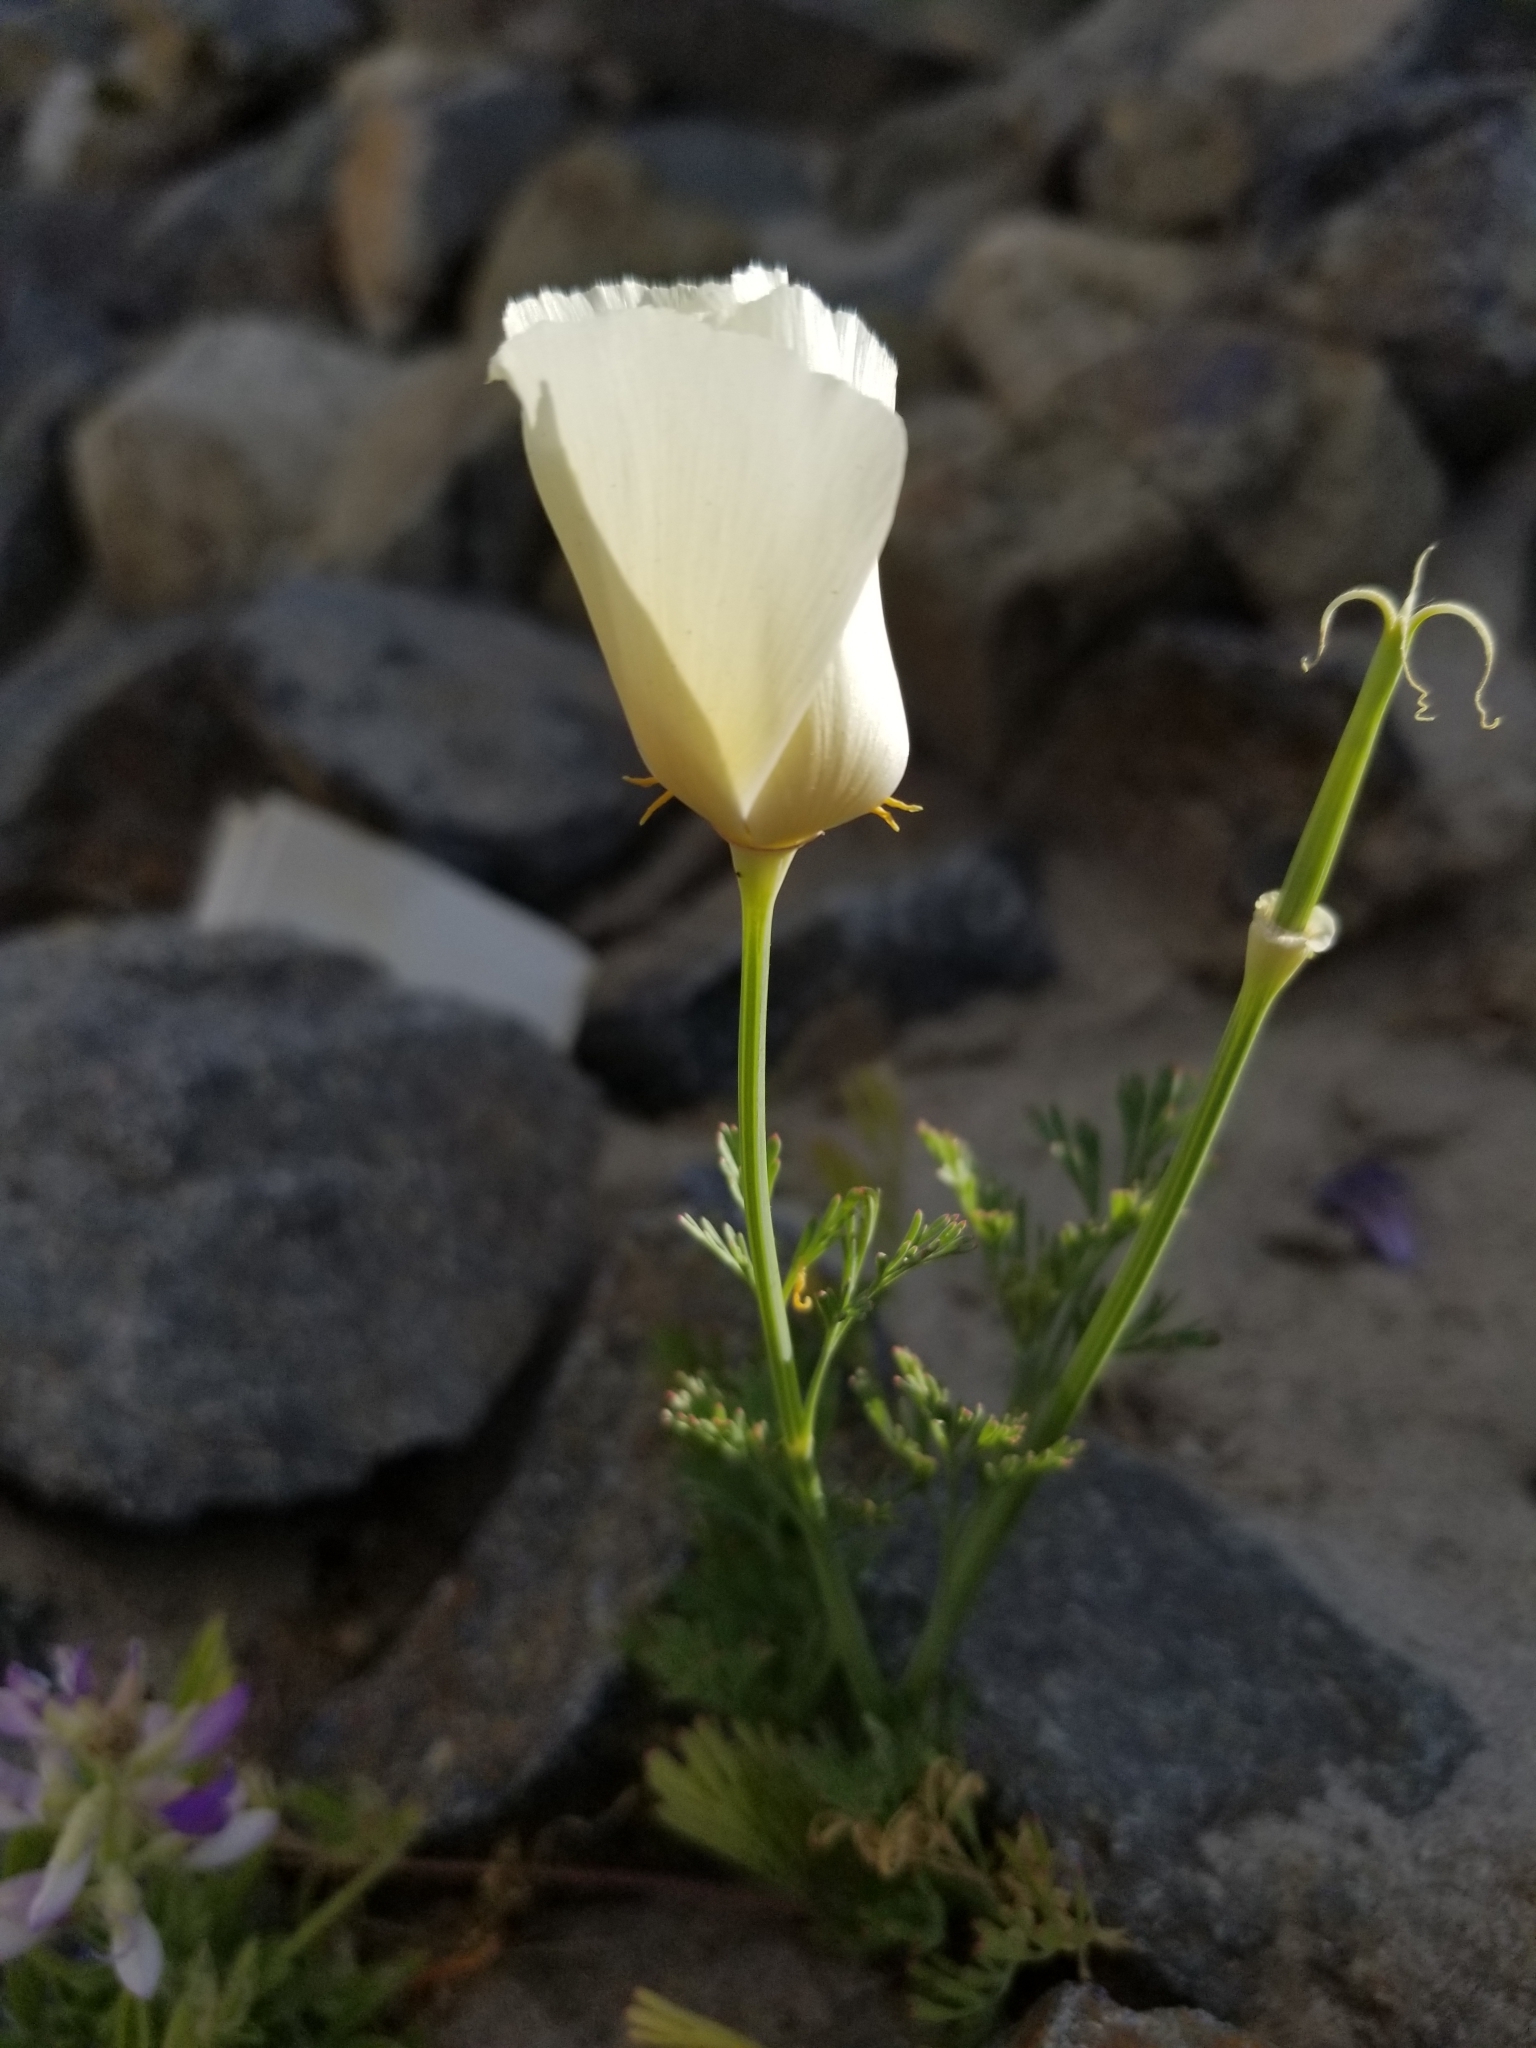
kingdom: Plantae
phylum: Tracheophyta
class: Magnoliopsida
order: Ranunculales
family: Papaveraceae
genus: Eschscholzia
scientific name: Eschscholzia californica
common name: California poppy
